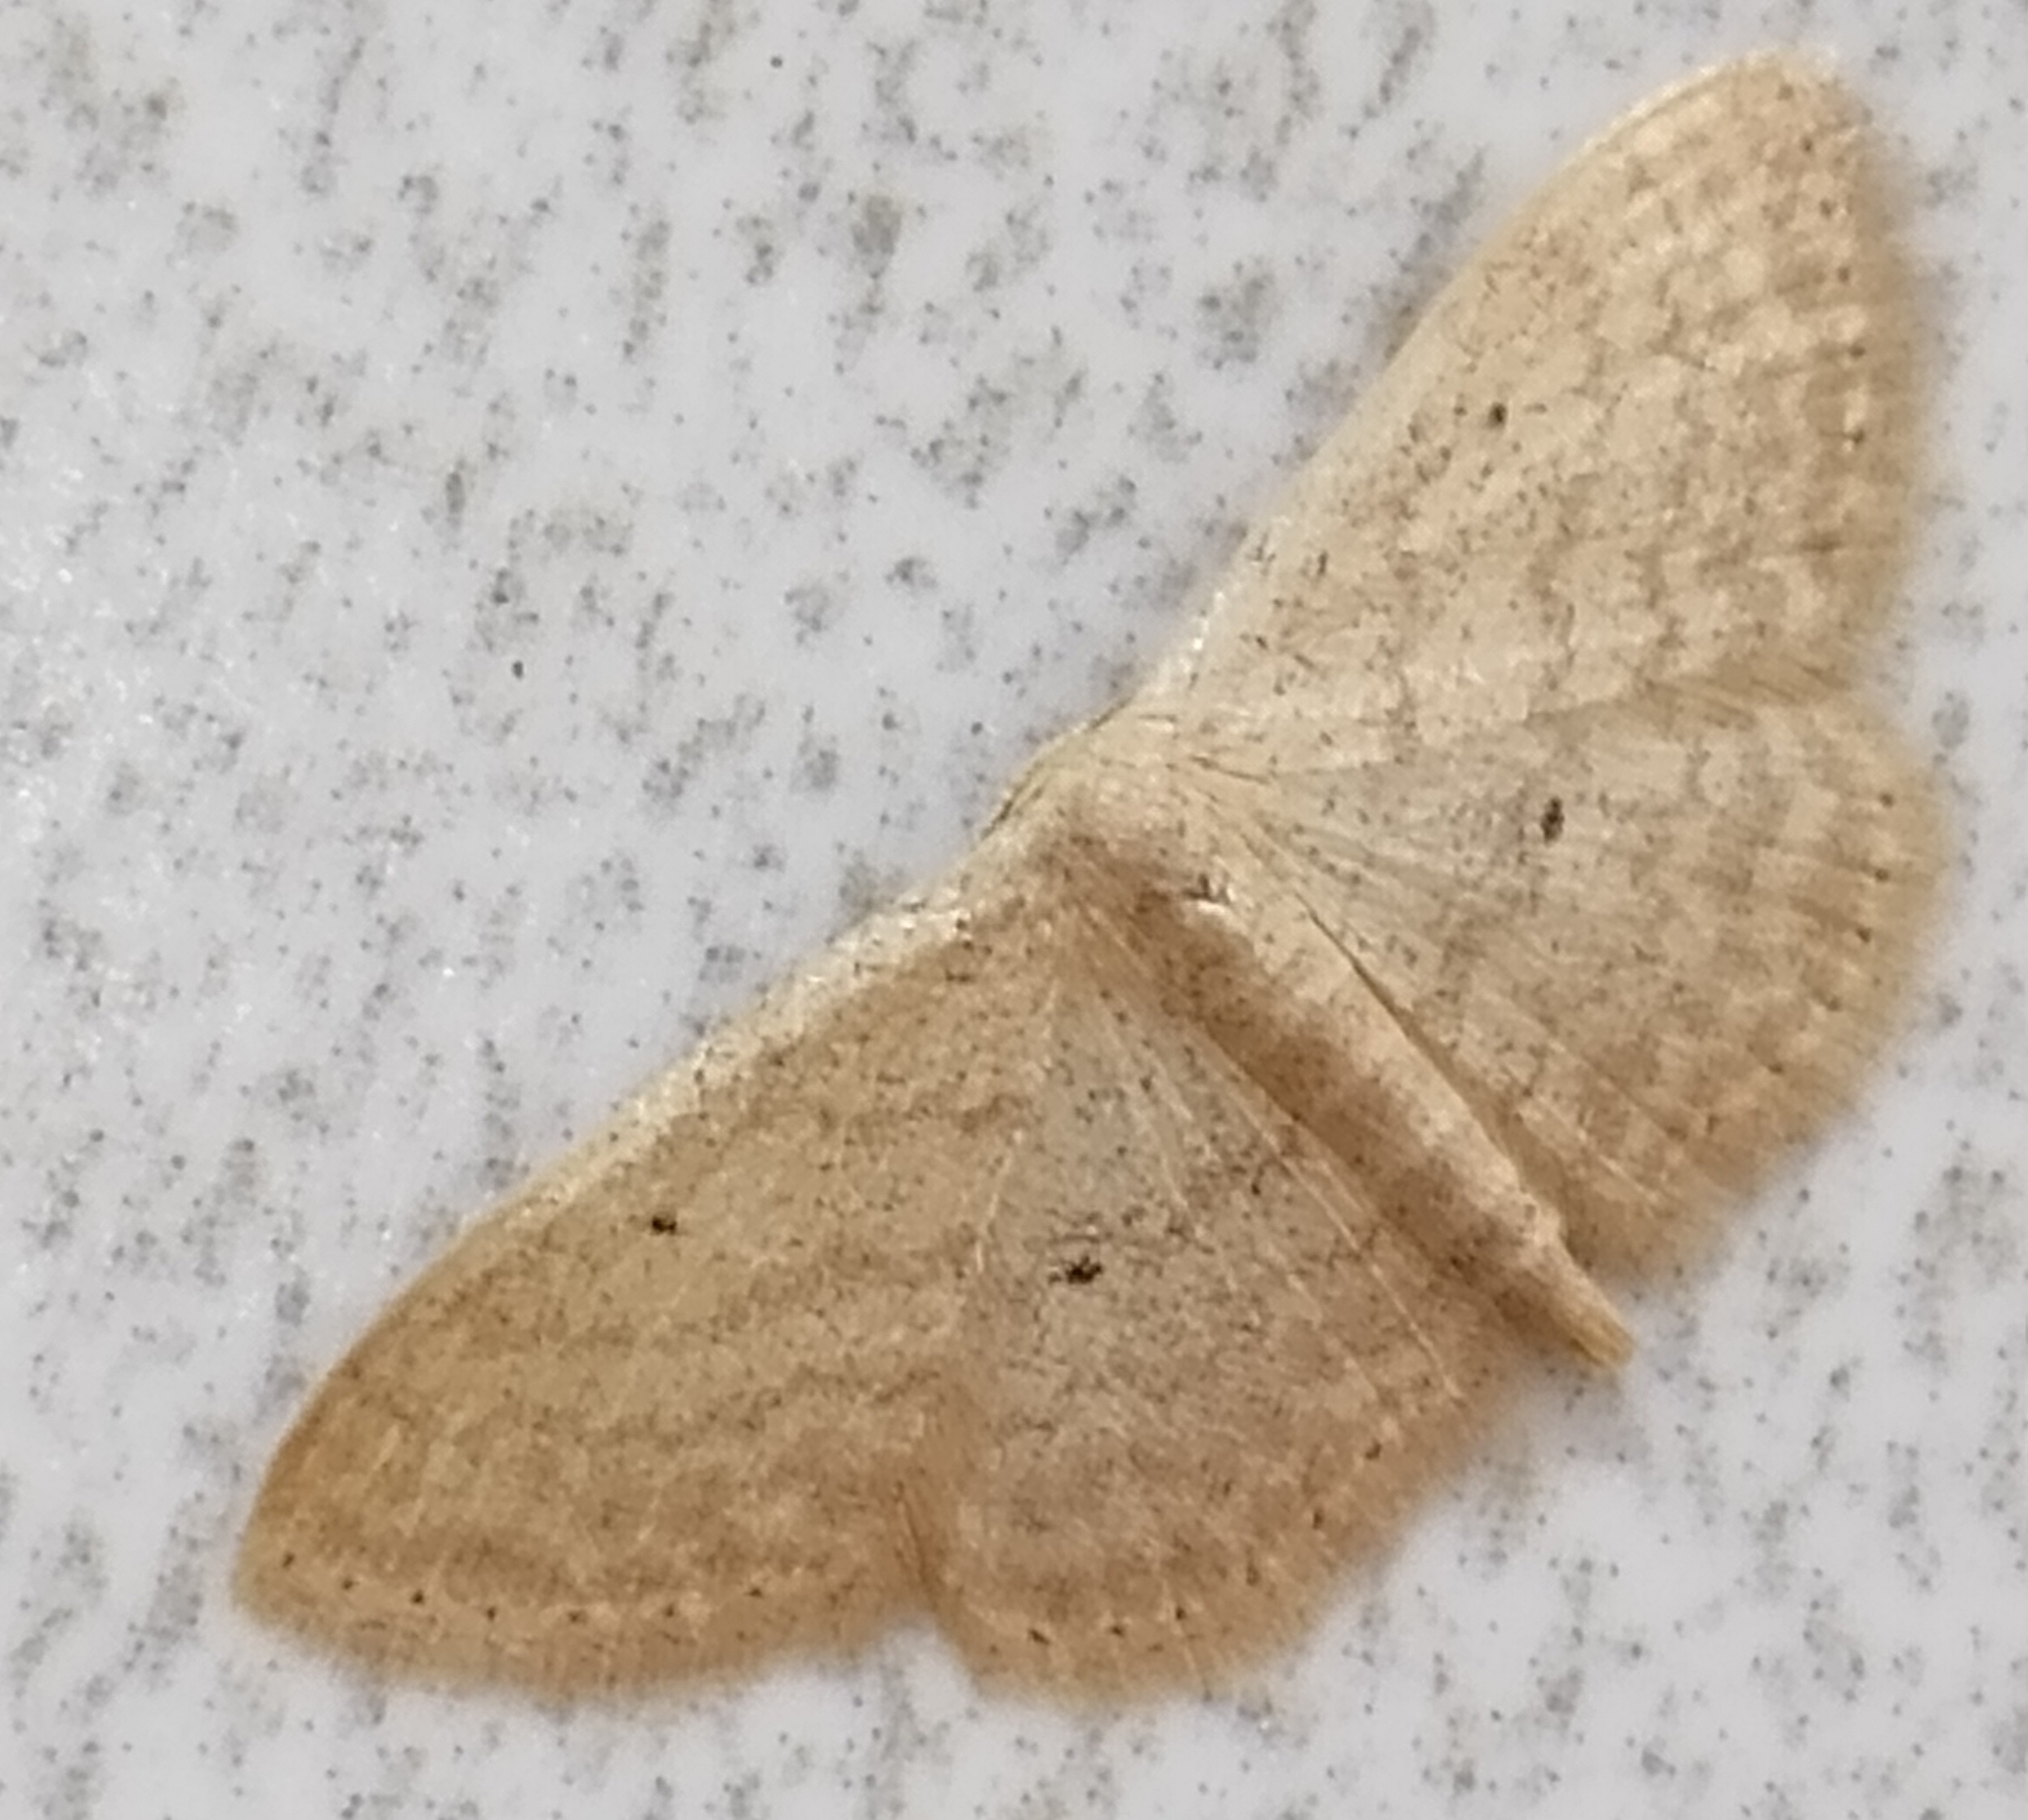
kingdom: Animalia
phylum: Arthropoda
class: Insecta
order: Lepidoptera
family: Geometridae
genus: Scopula
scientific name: Scopula minorata
